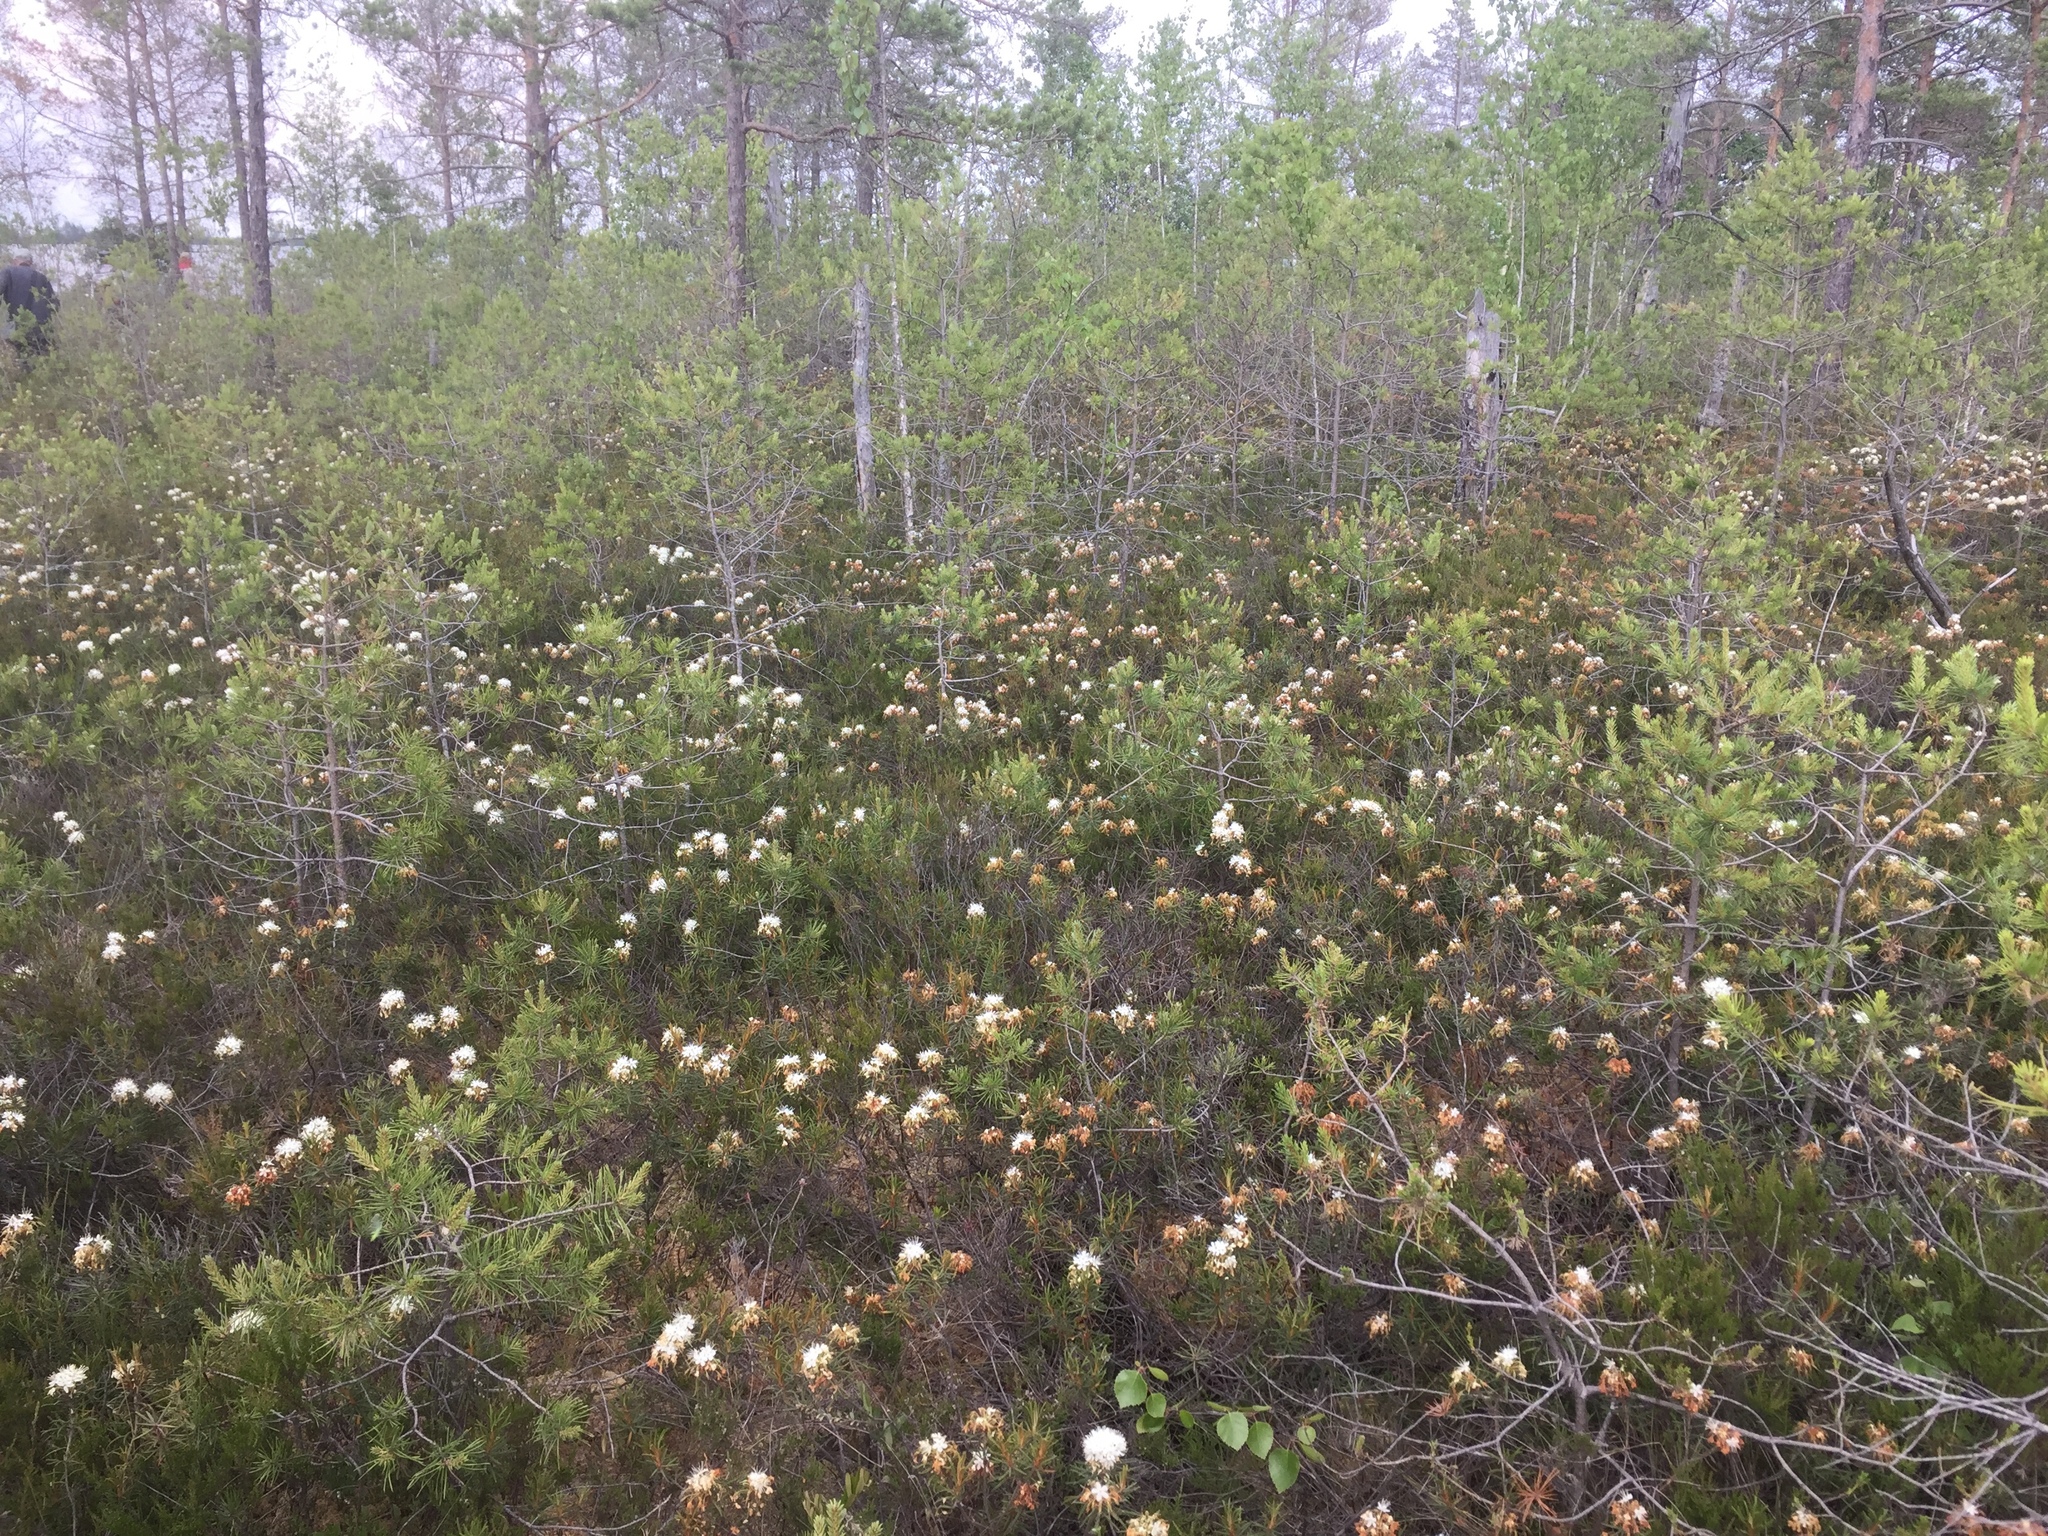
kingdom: Plantae
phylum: Tracheophyta
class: Pinopsida
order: Pinales
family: Pinaceae
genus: Pinus
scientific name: Pinus sylvestris
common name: Scots pine
